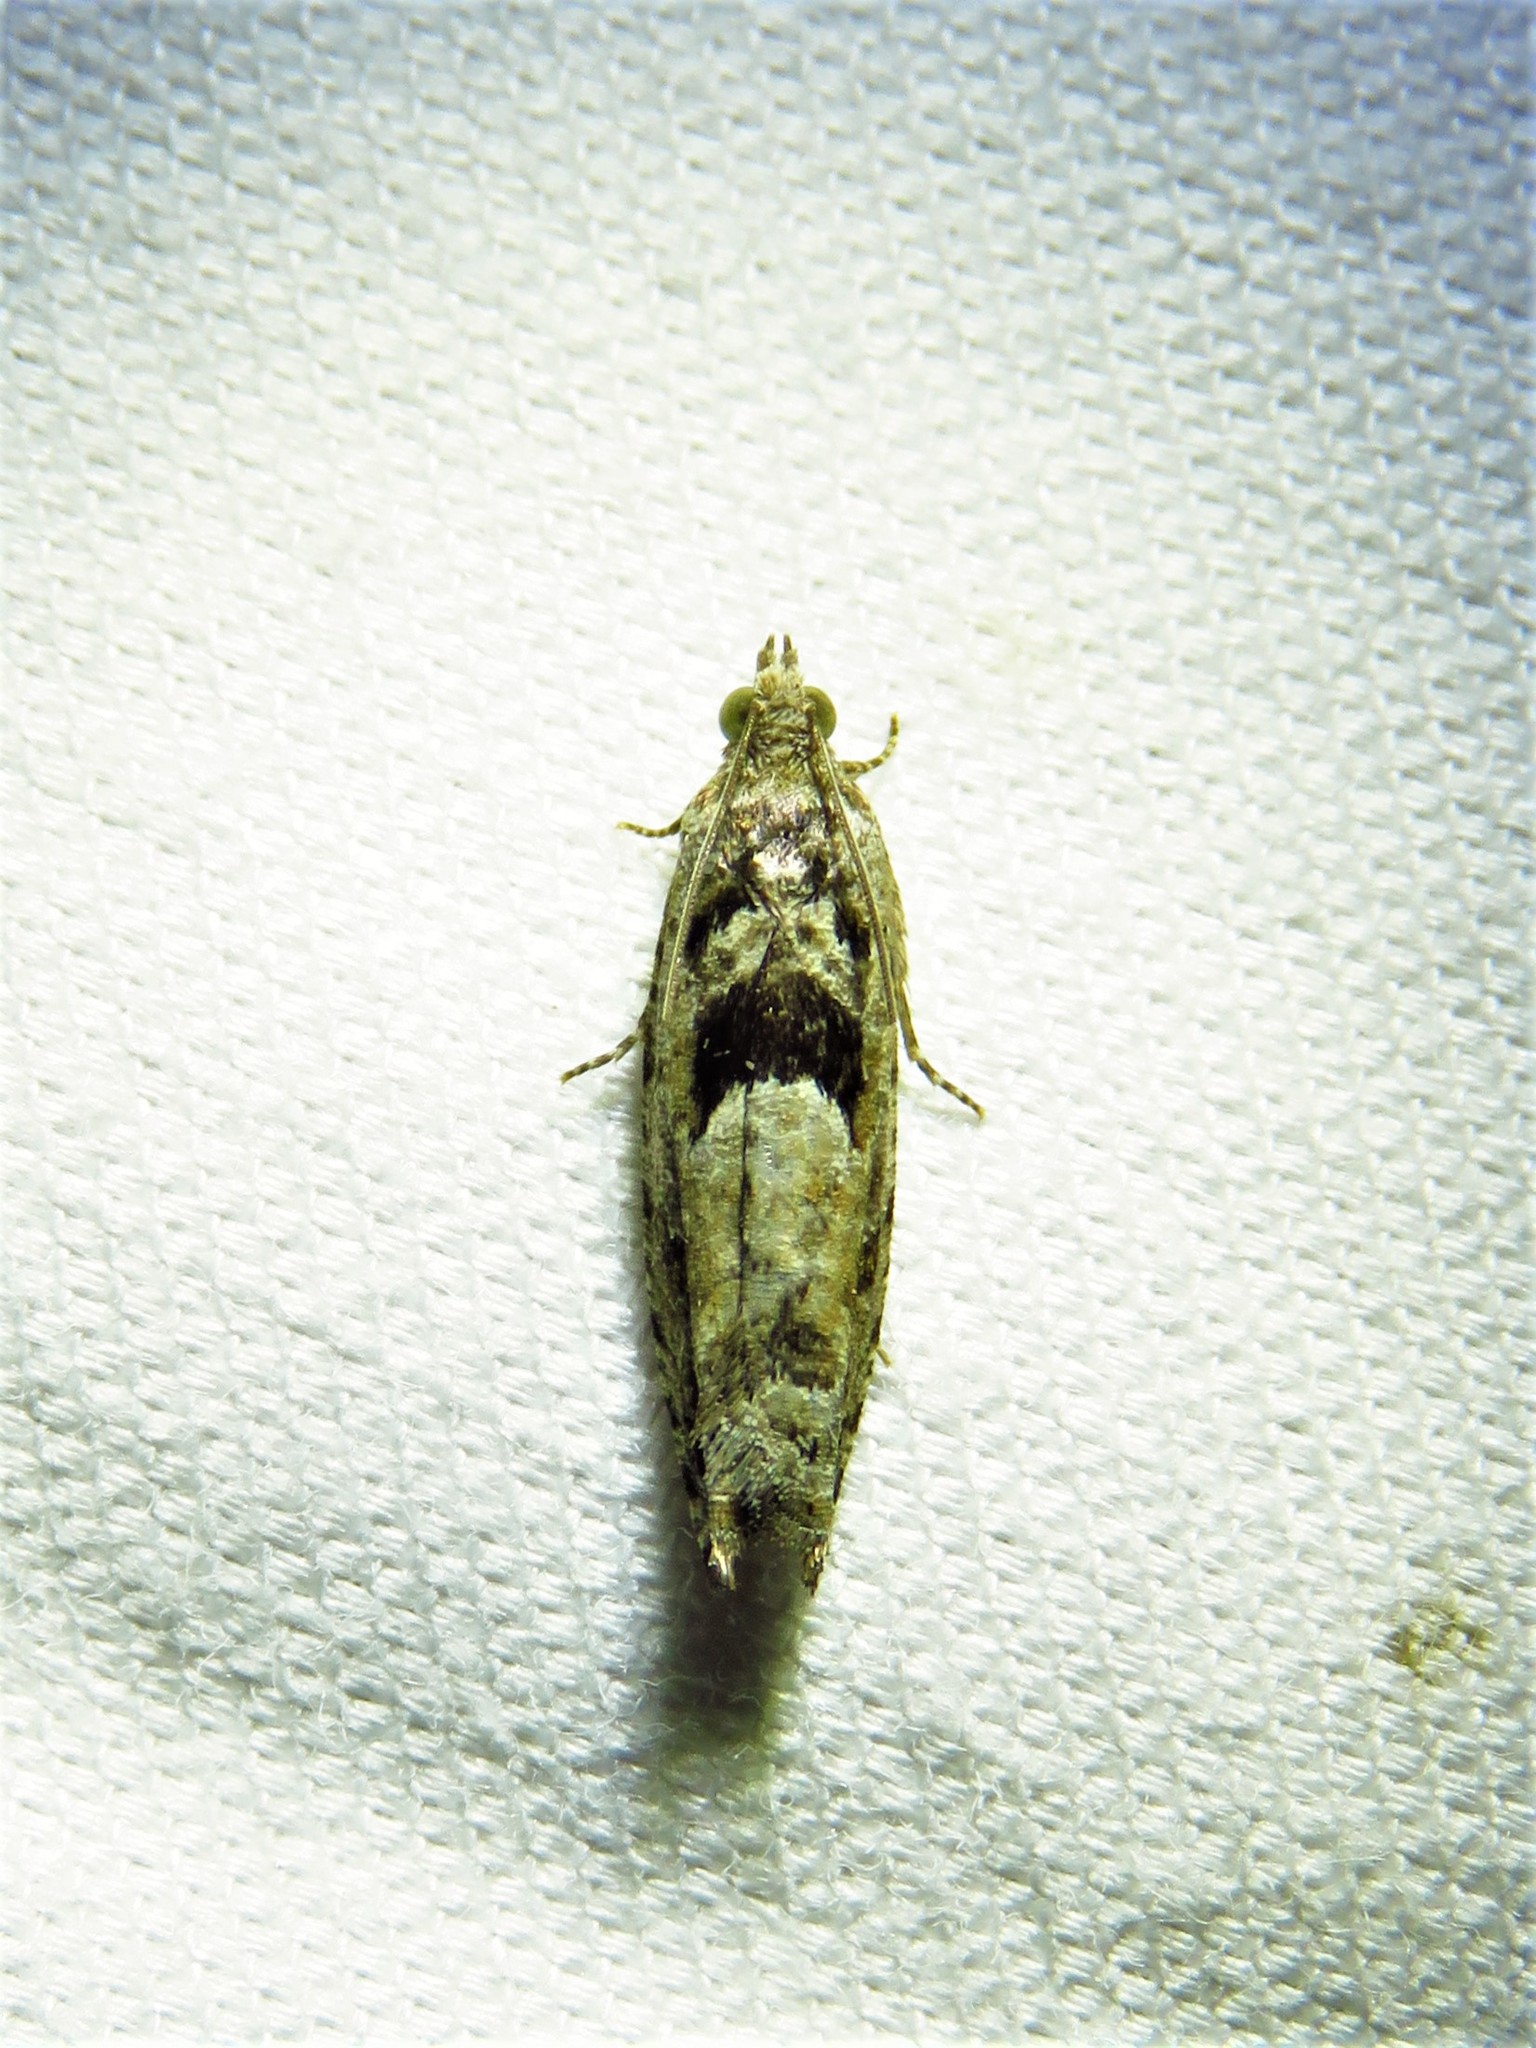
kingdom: Animalia
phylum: Arthropoda
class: Insecta
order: Lepidoptera
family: Tortricidae
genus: Pseudexentera
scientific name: Pseudexentera hodsoni
